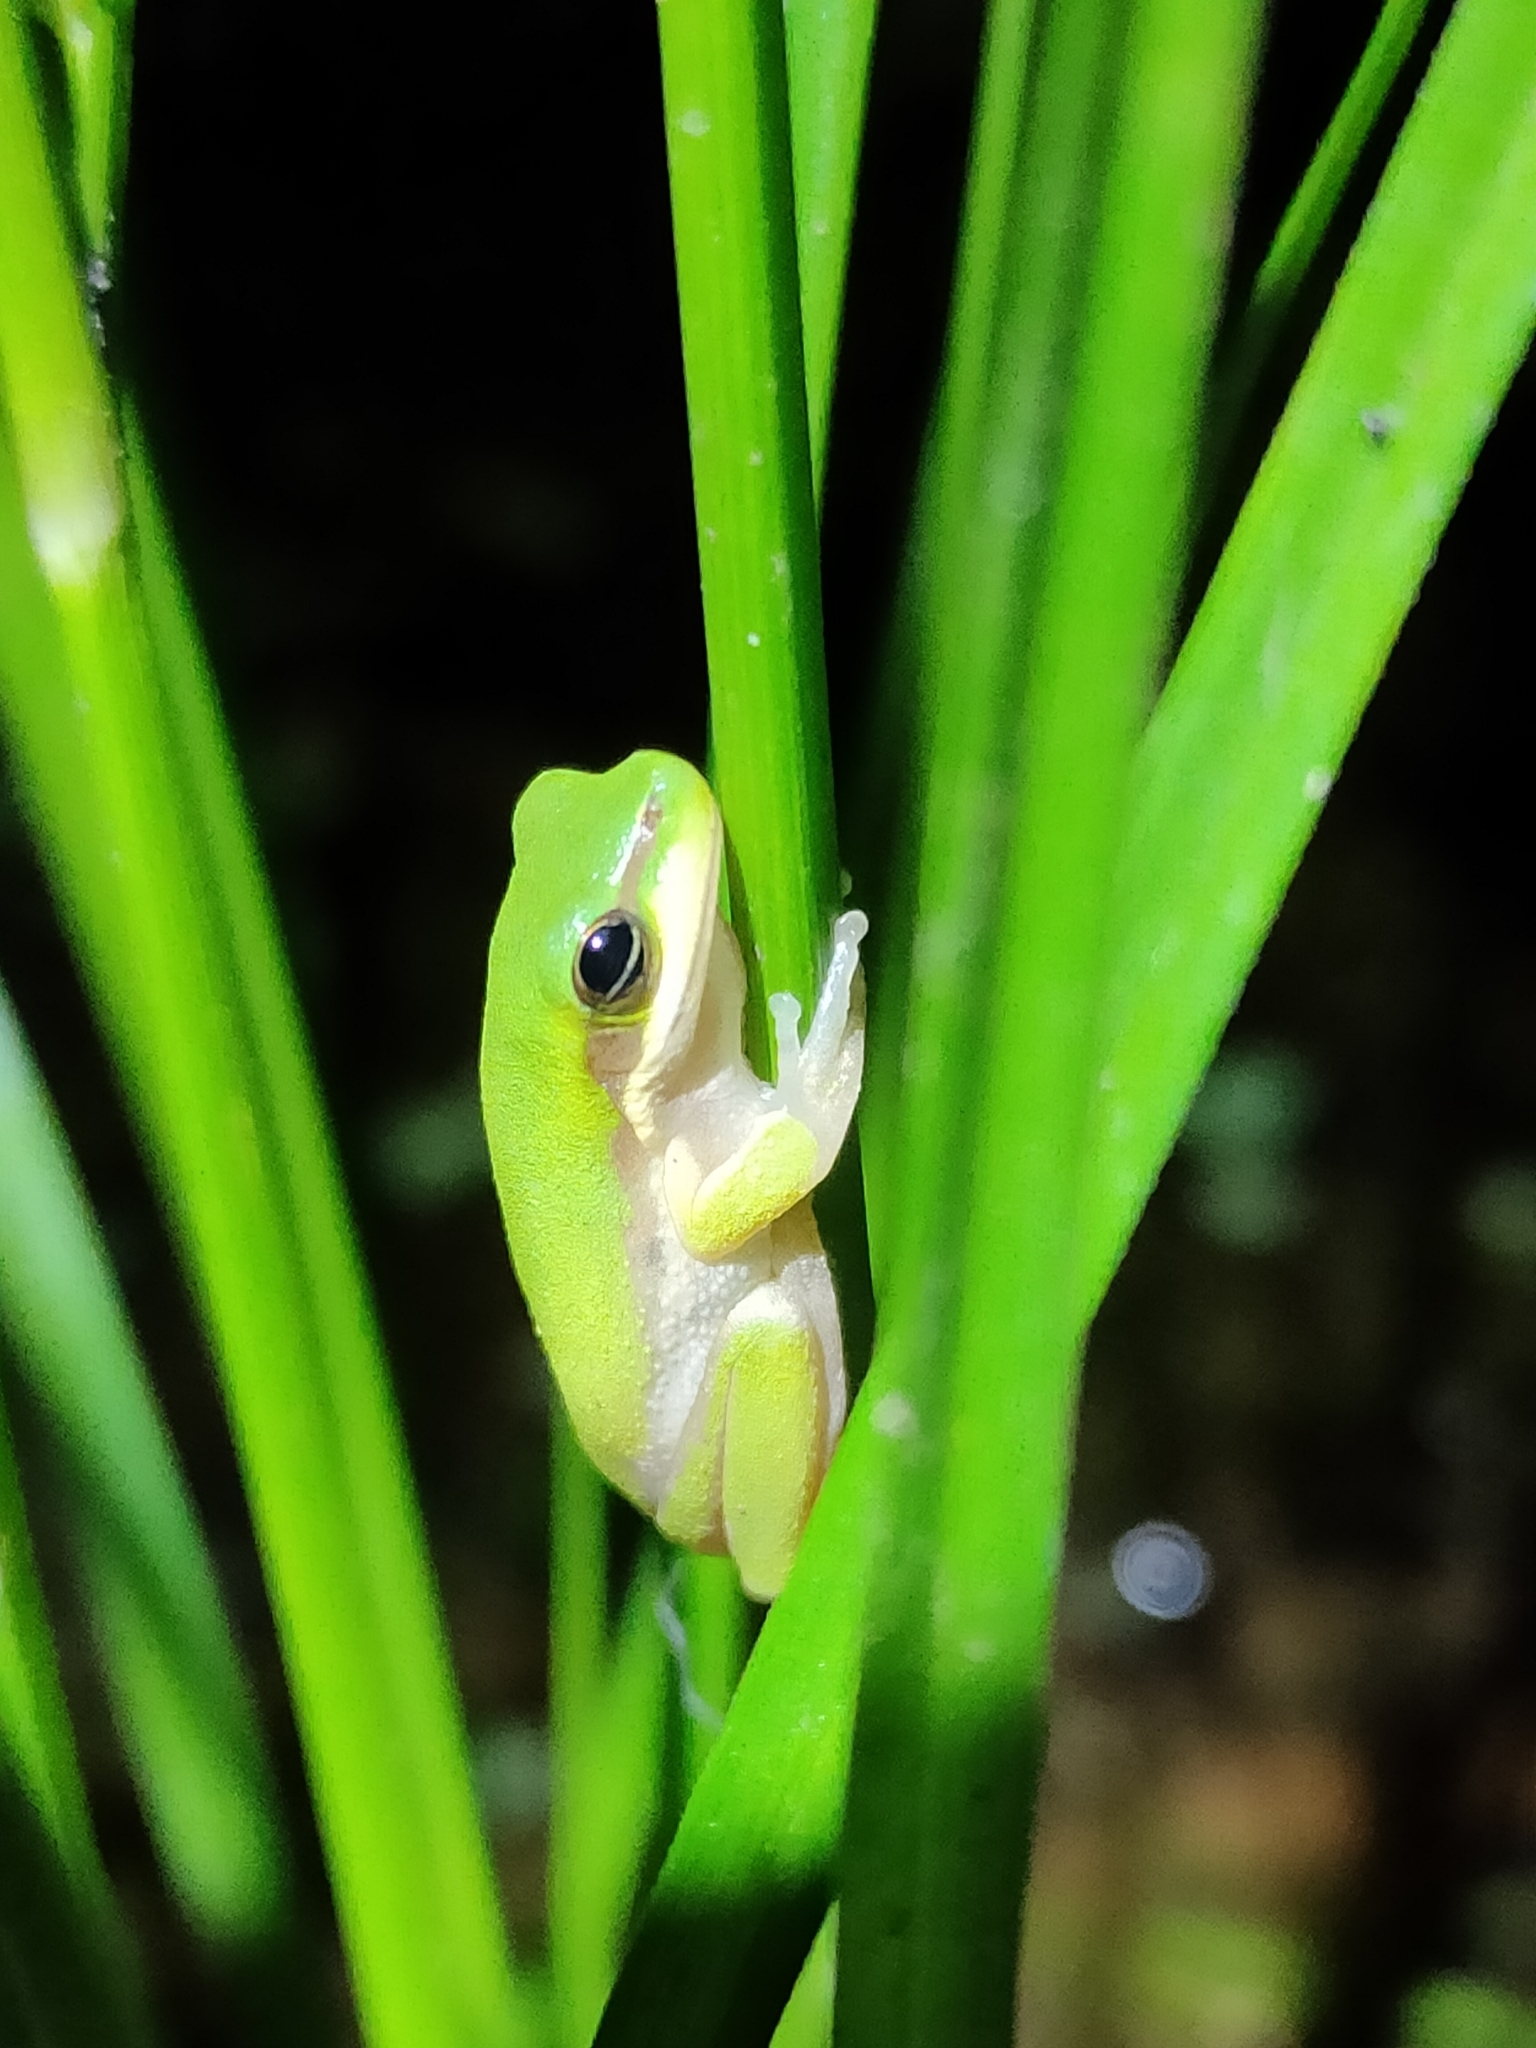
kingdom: Animalia
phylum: Chordata
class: Amphibia
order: Anura
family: Pelodryadidae
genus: Litoria
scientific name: Litoria fallax
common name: Eastern dwarf treefrog
